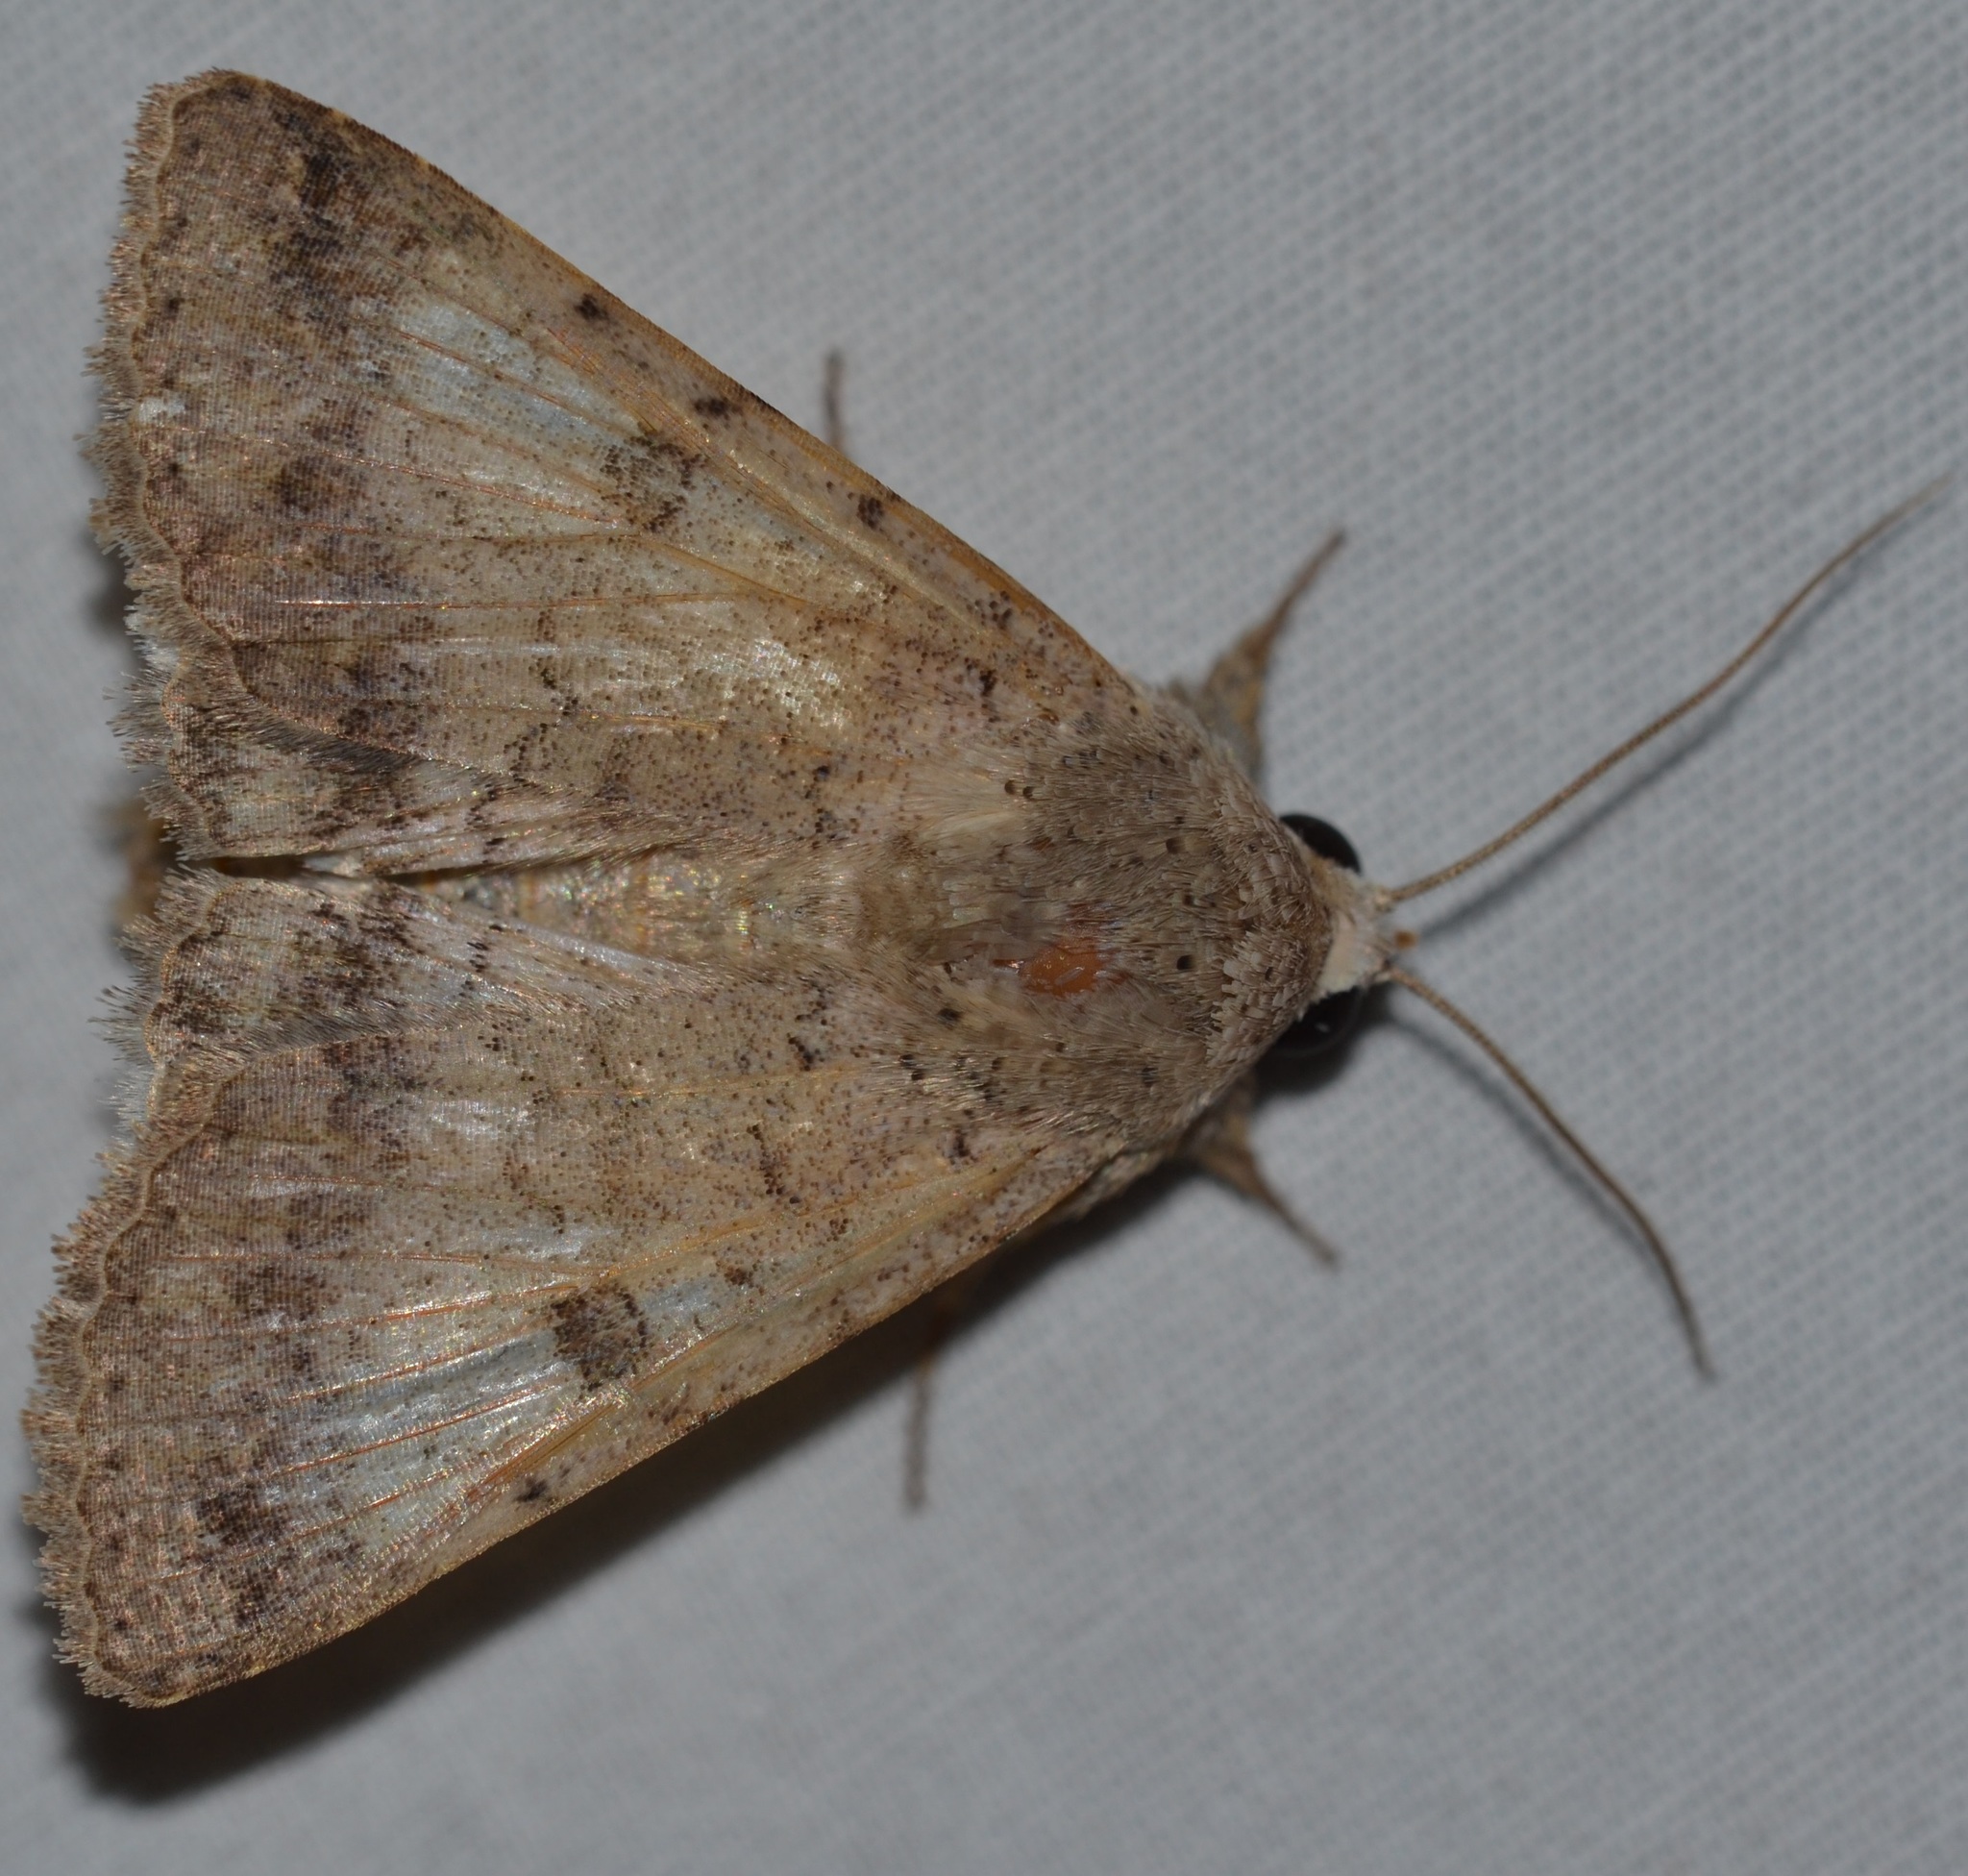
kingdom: Animalia
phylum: Arthropoda
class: Insecta
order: Lepidoptera
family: Erebidae
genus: Pandesma
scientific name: Pandesma anysa
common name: Moth
